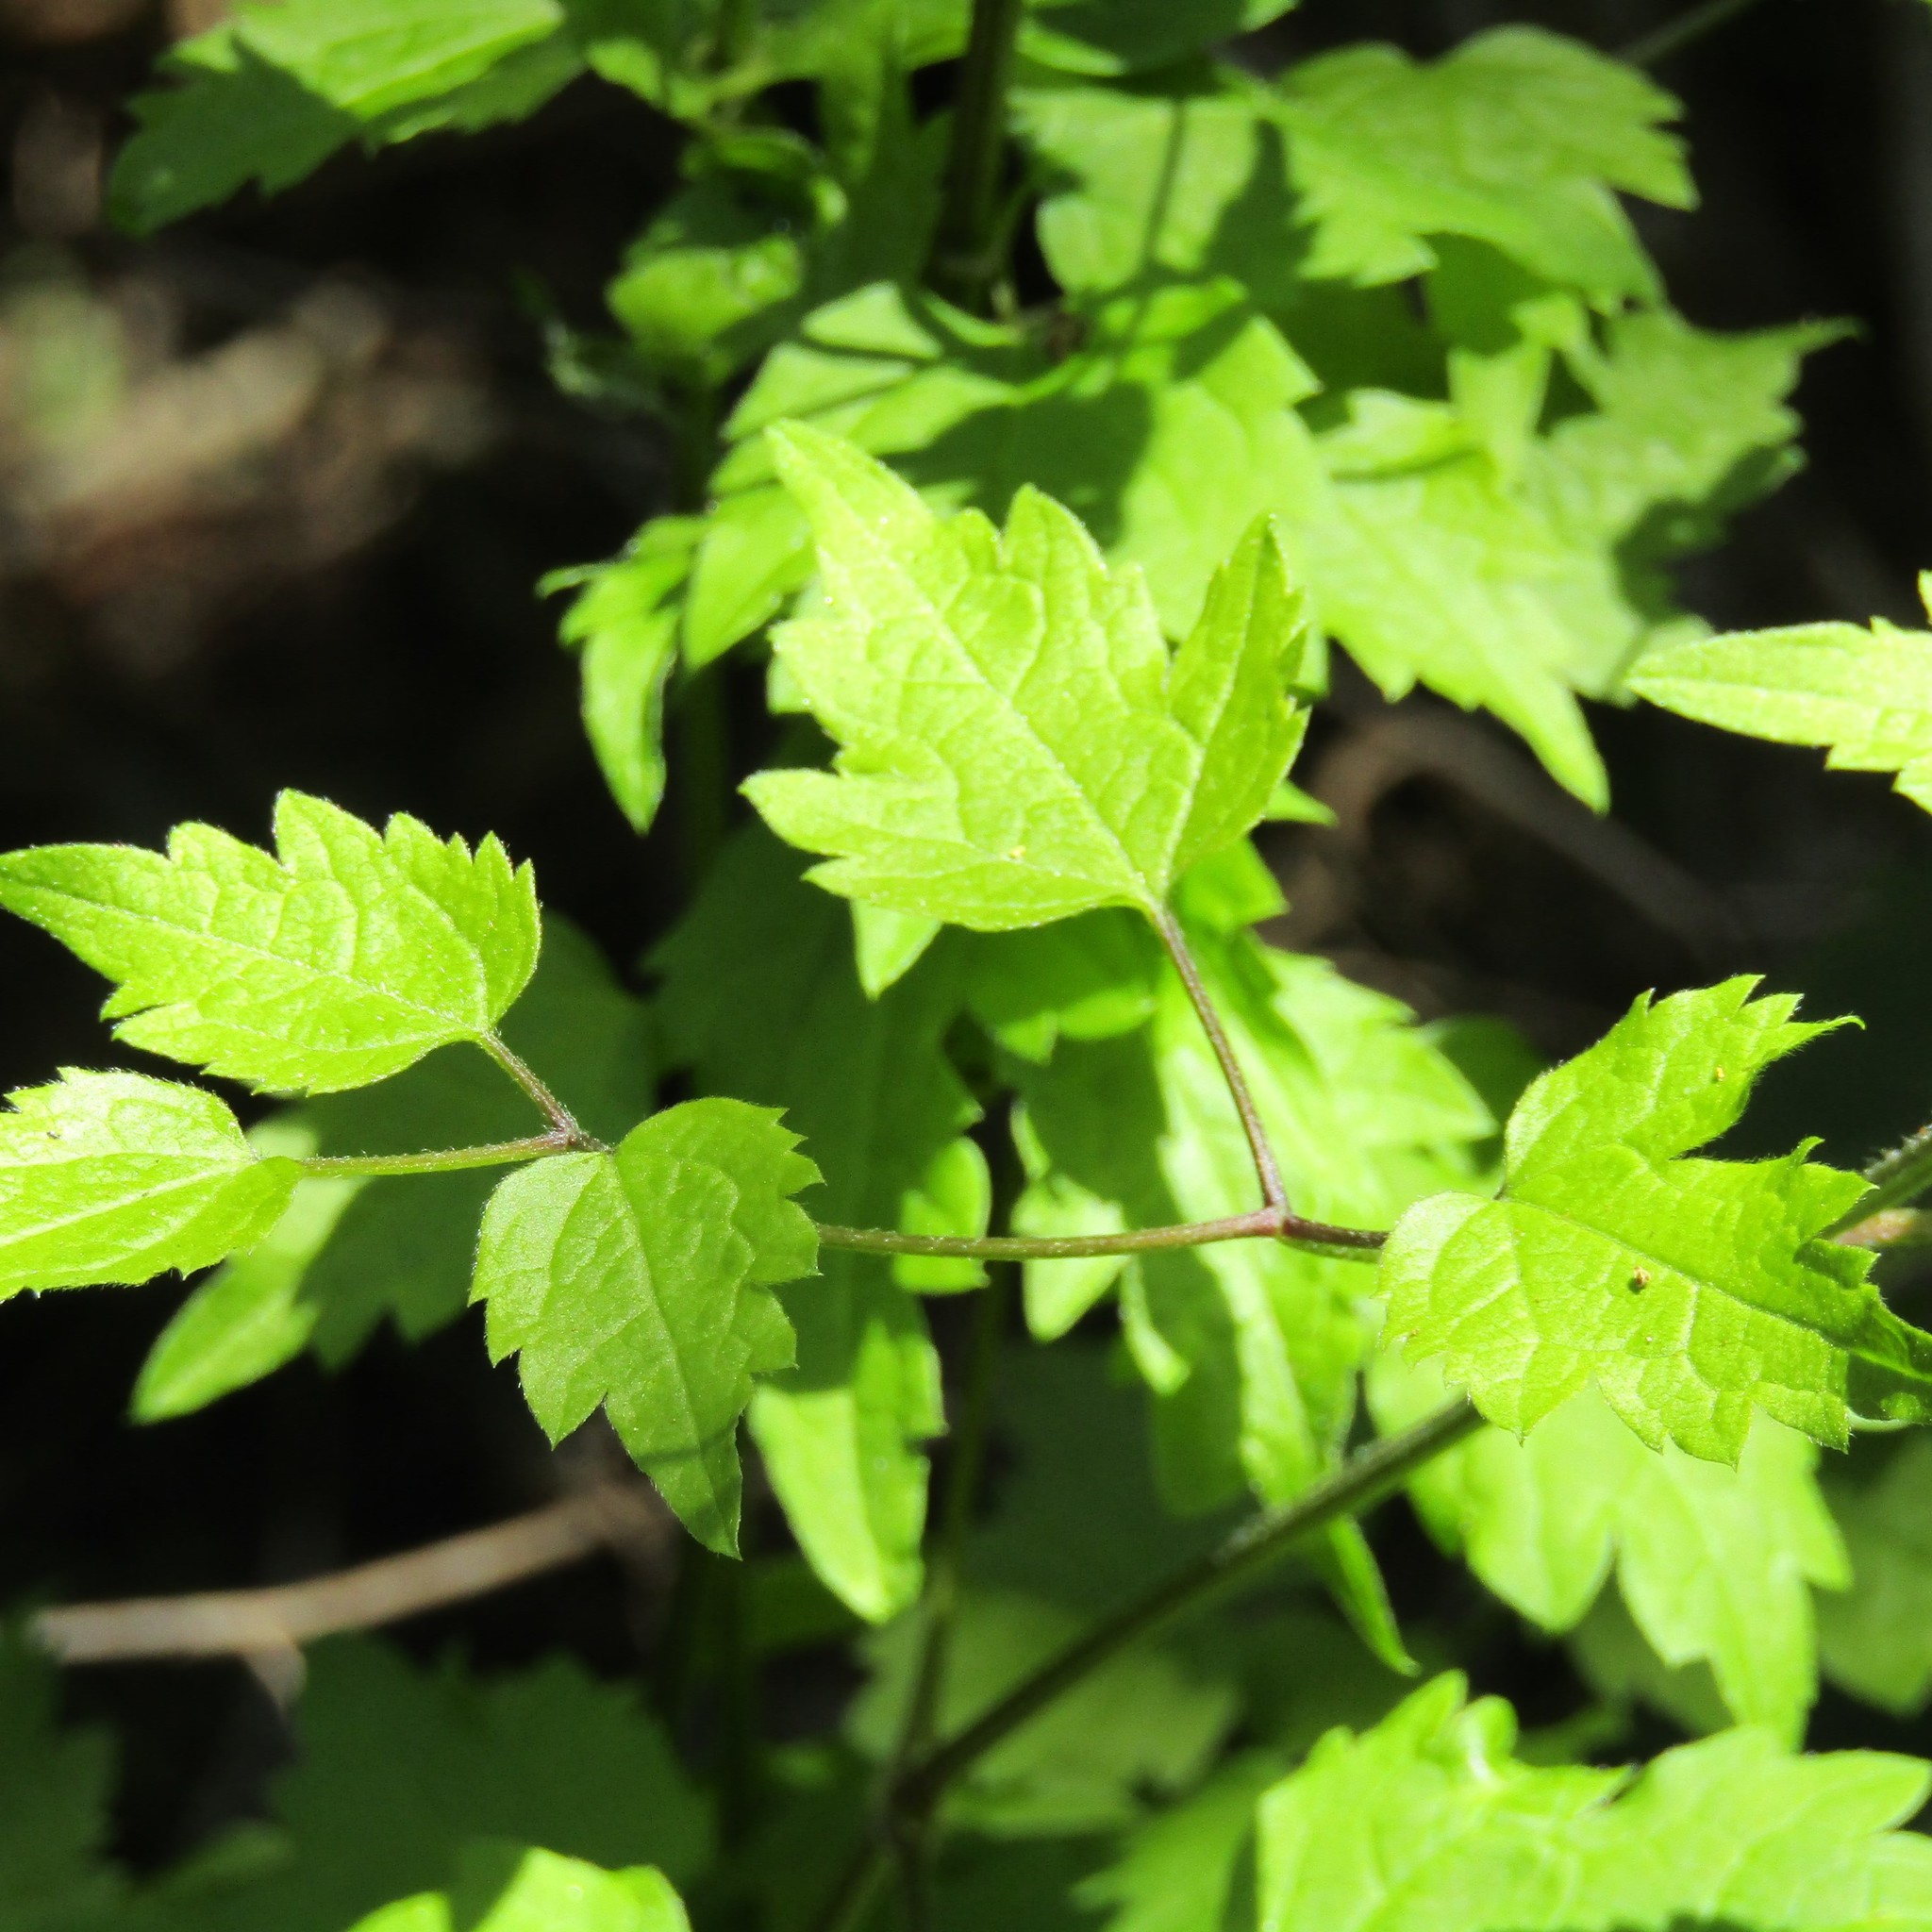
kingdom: Plantae
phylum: Tracheophyta
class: Magnoliopsida
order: Ranunculales
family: Ranunculaceae
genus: Clematis
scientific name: Clematis vitalba
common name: Evergreen clematis
